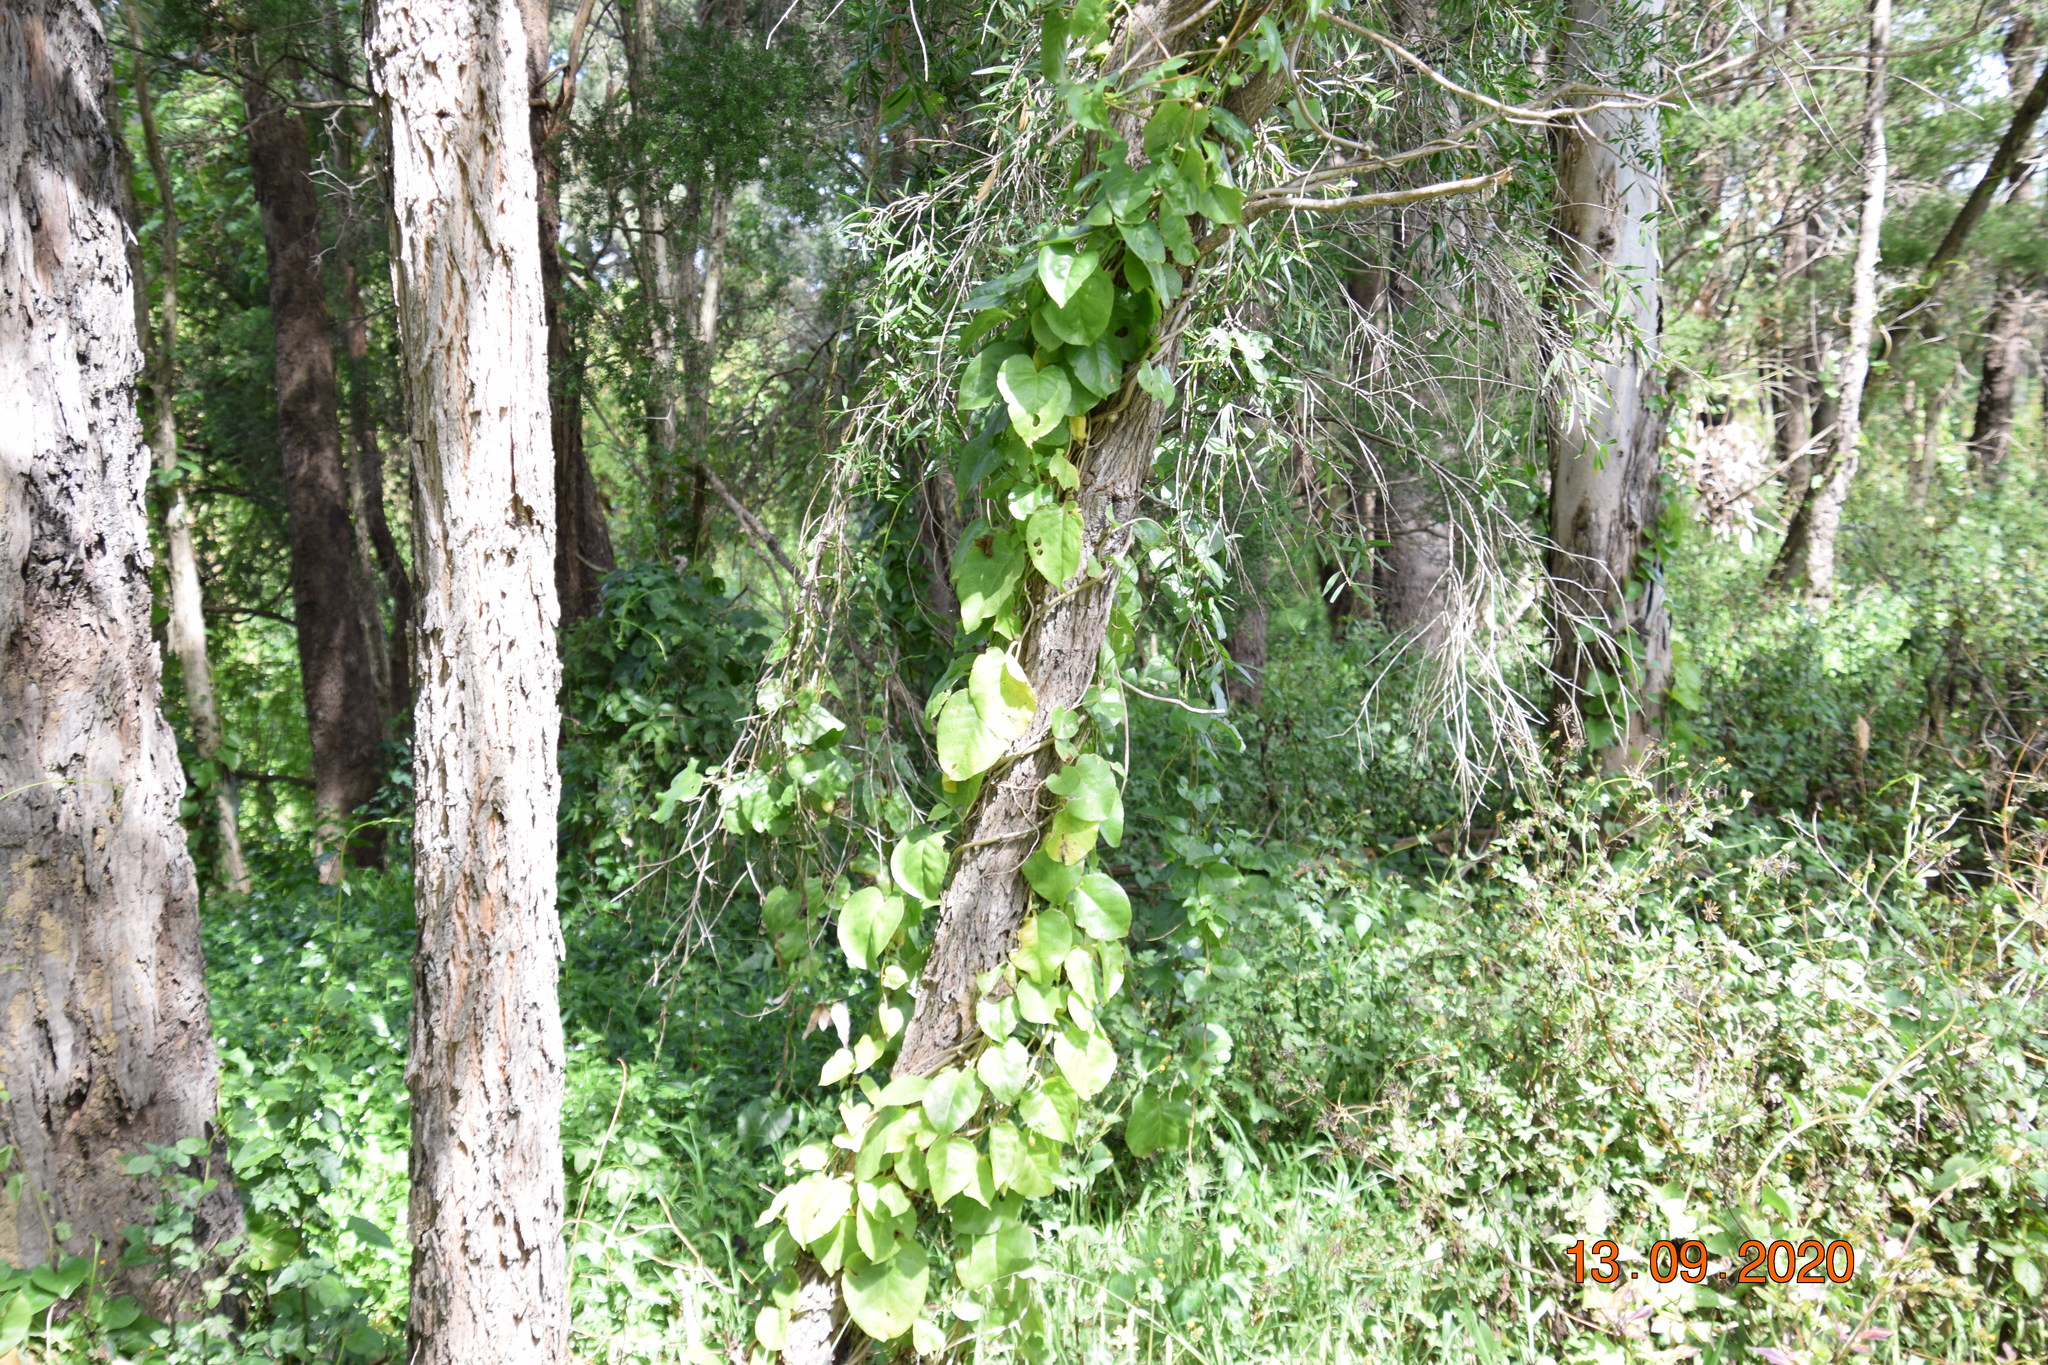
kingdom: Plantae
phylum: Tracheophyta
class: Magnoliopsida
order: Caryophyllales
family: Basellaceae
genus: Anredera
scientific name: Anredera cordifolia
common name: Heartleaf madeiravine
